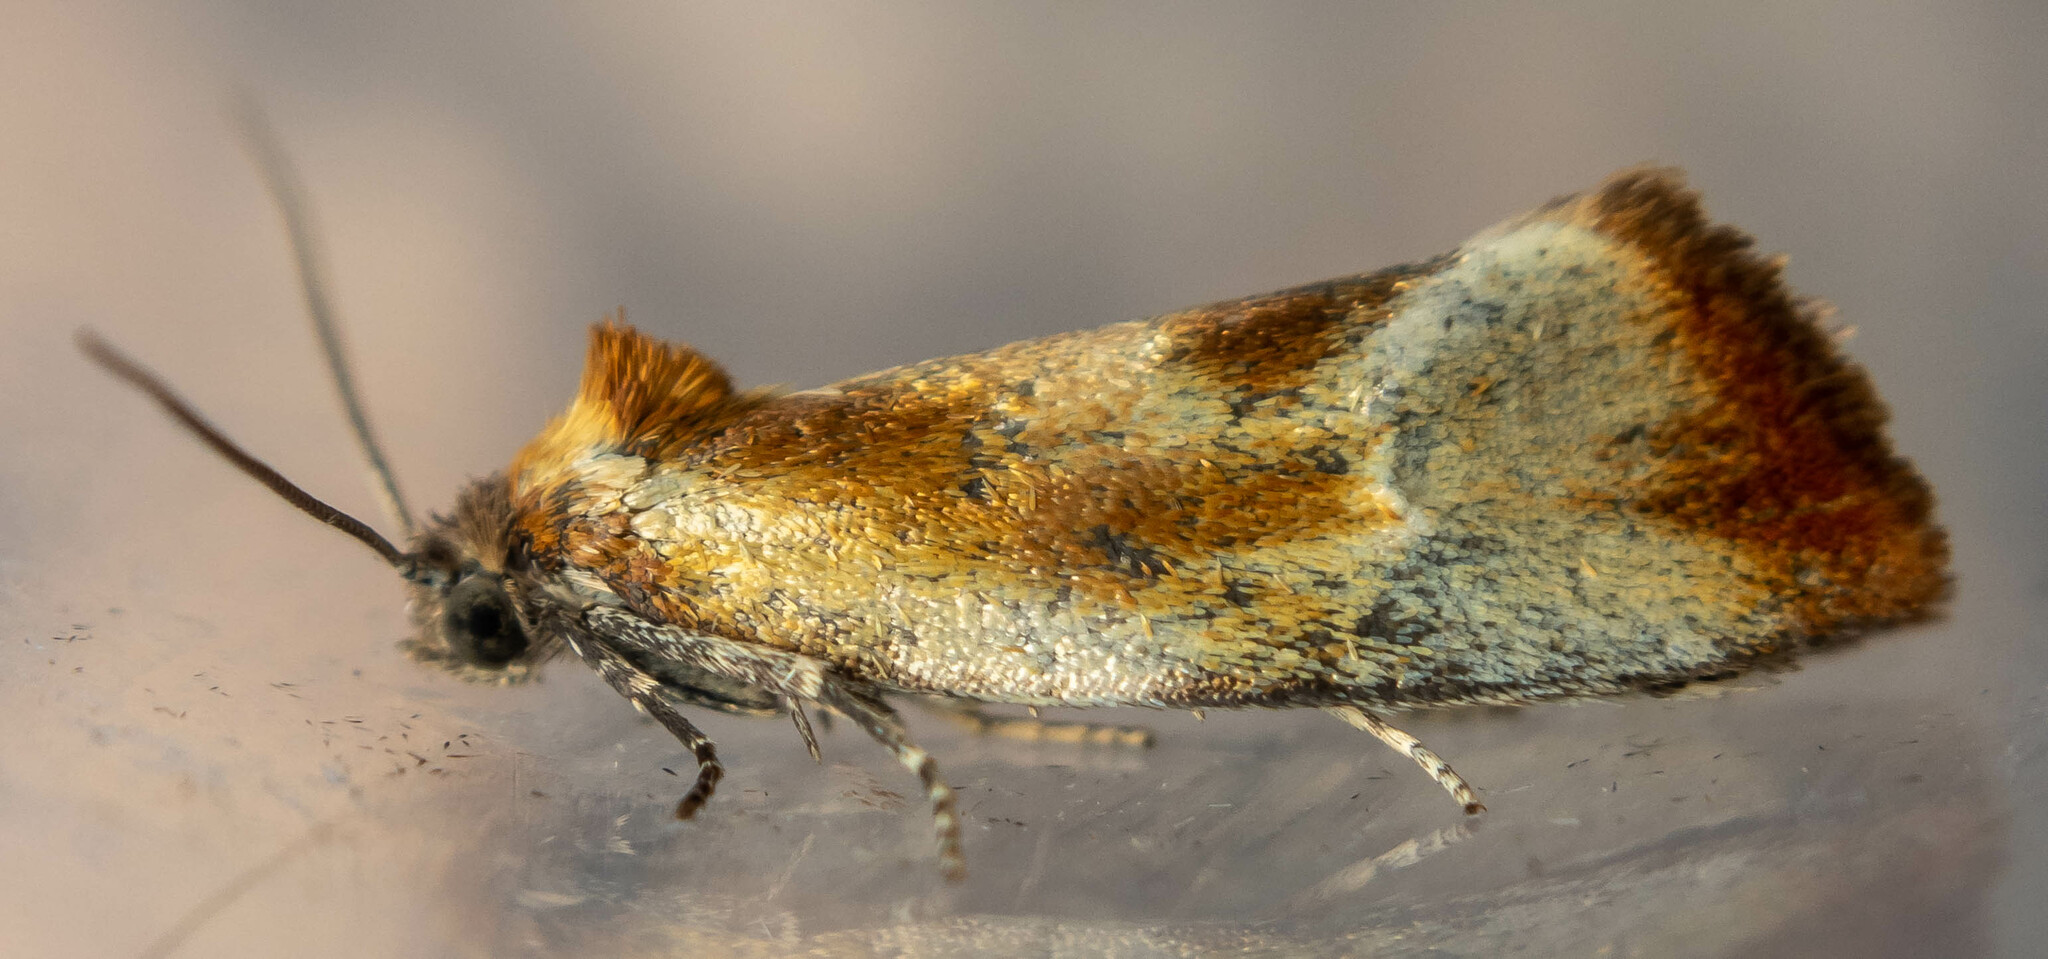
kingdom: Animalia
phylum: Arthropoda
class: Insecta
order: Lepidoptera
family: Tortricidae
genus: Eulia
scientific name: Eulia ministrana
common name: Brassy twist
